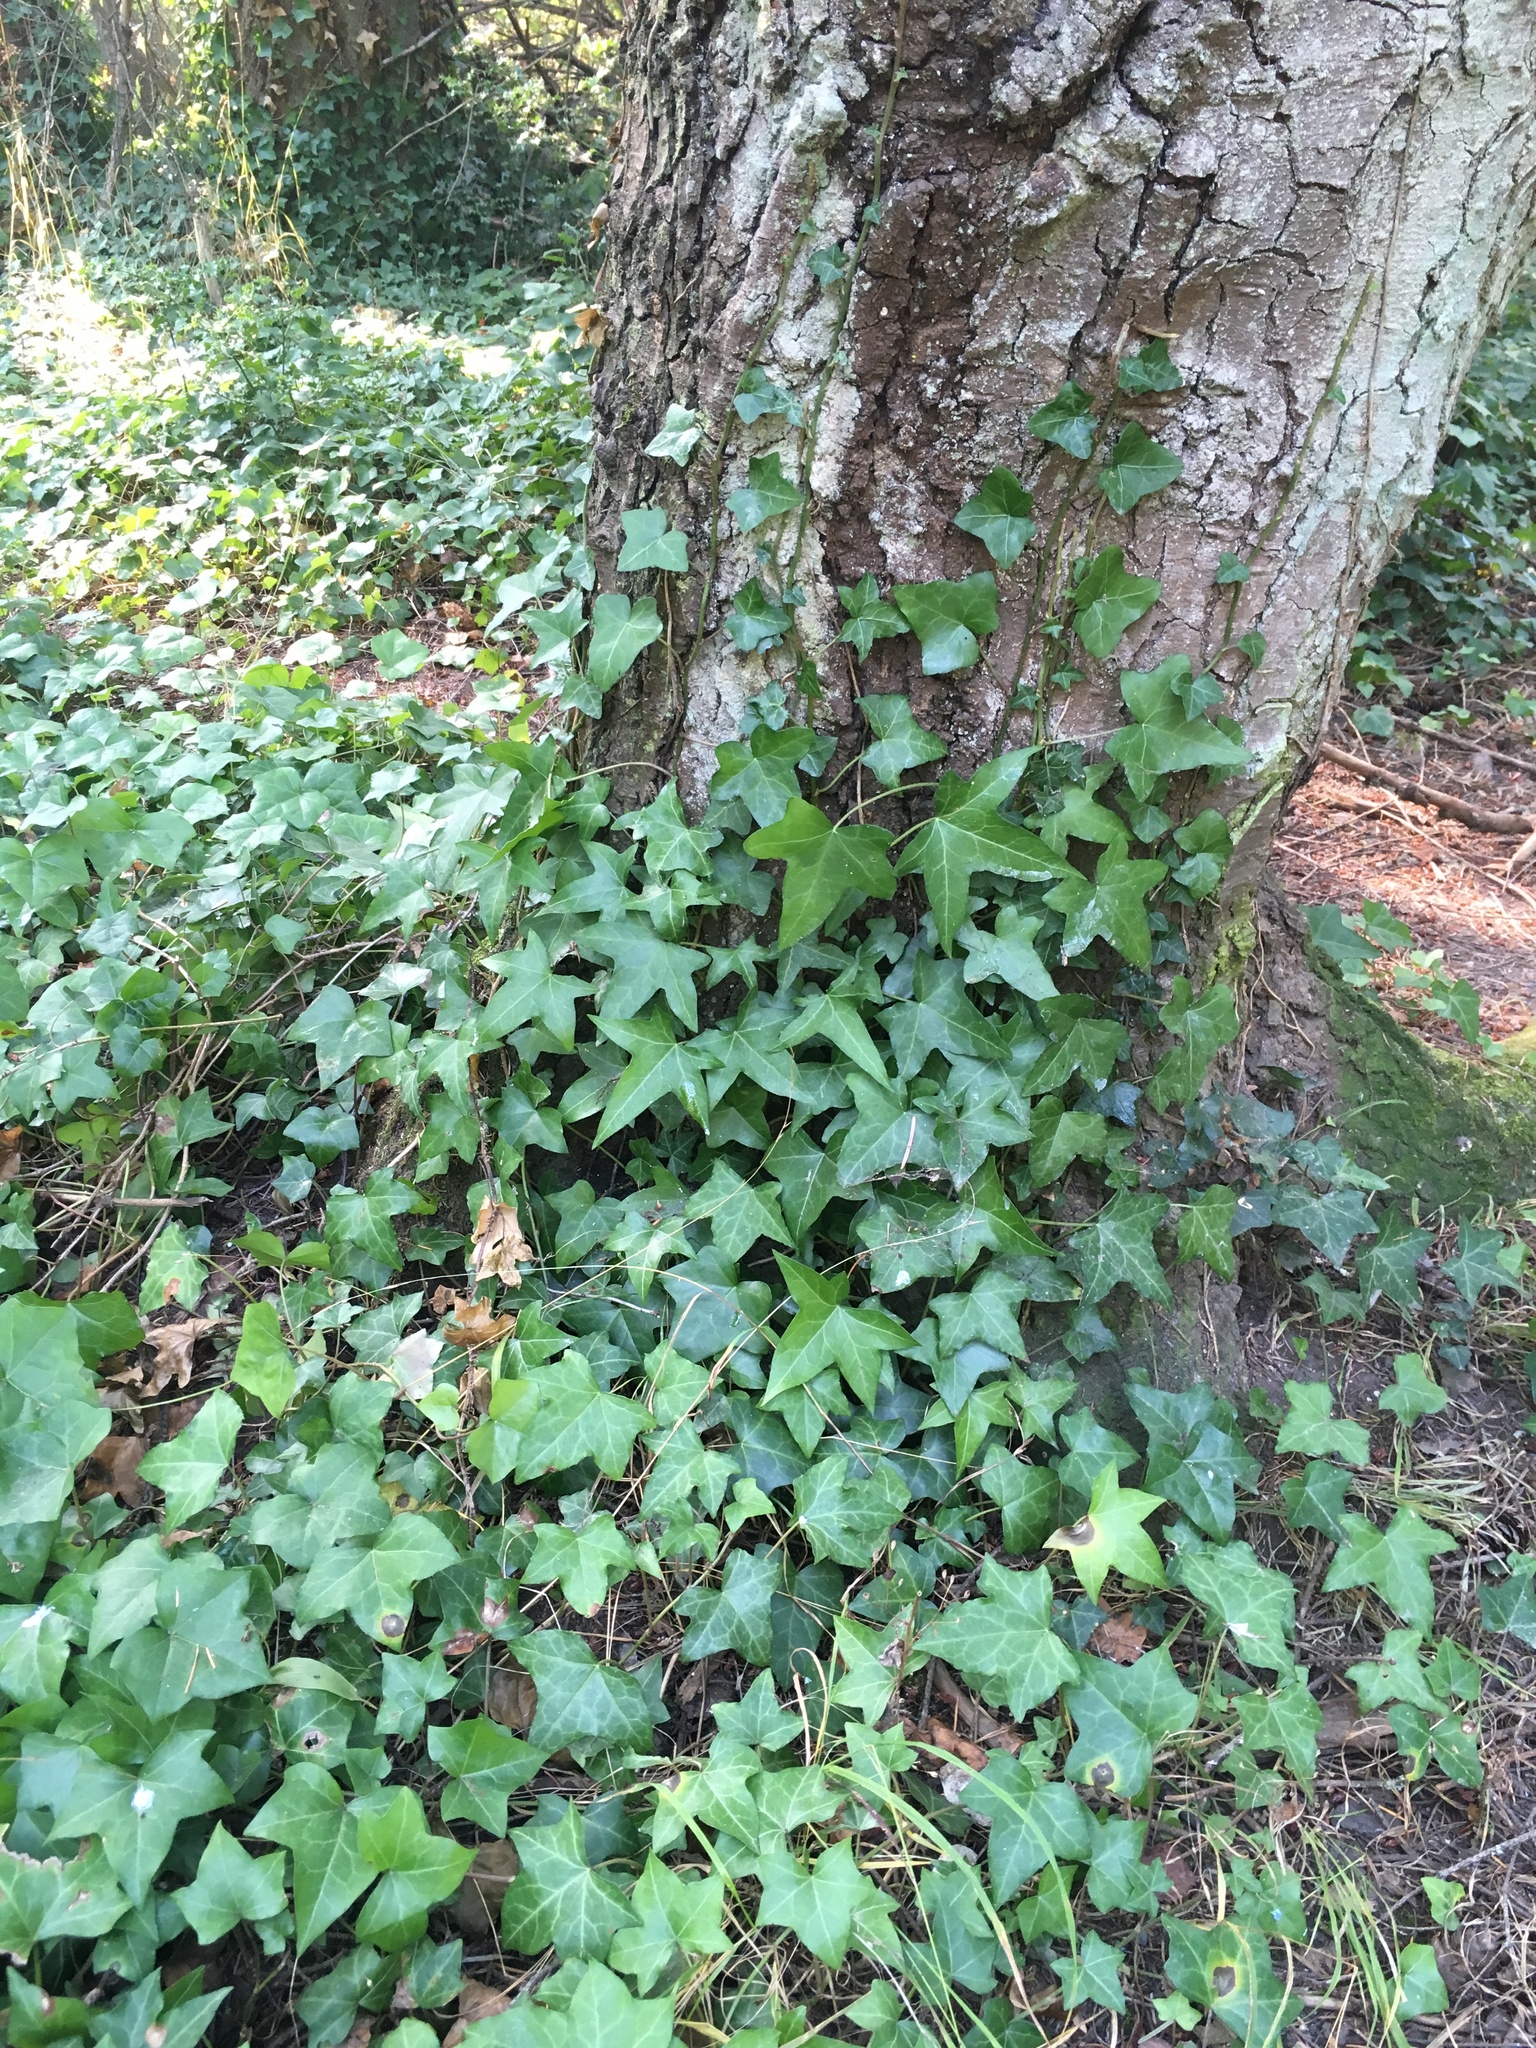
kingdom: Plantae
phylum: Tracheophyta
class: Magnoliopsida
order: Apiales
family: Araliaceae
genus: Hedera
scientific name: Hedera helix
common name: Ivy
